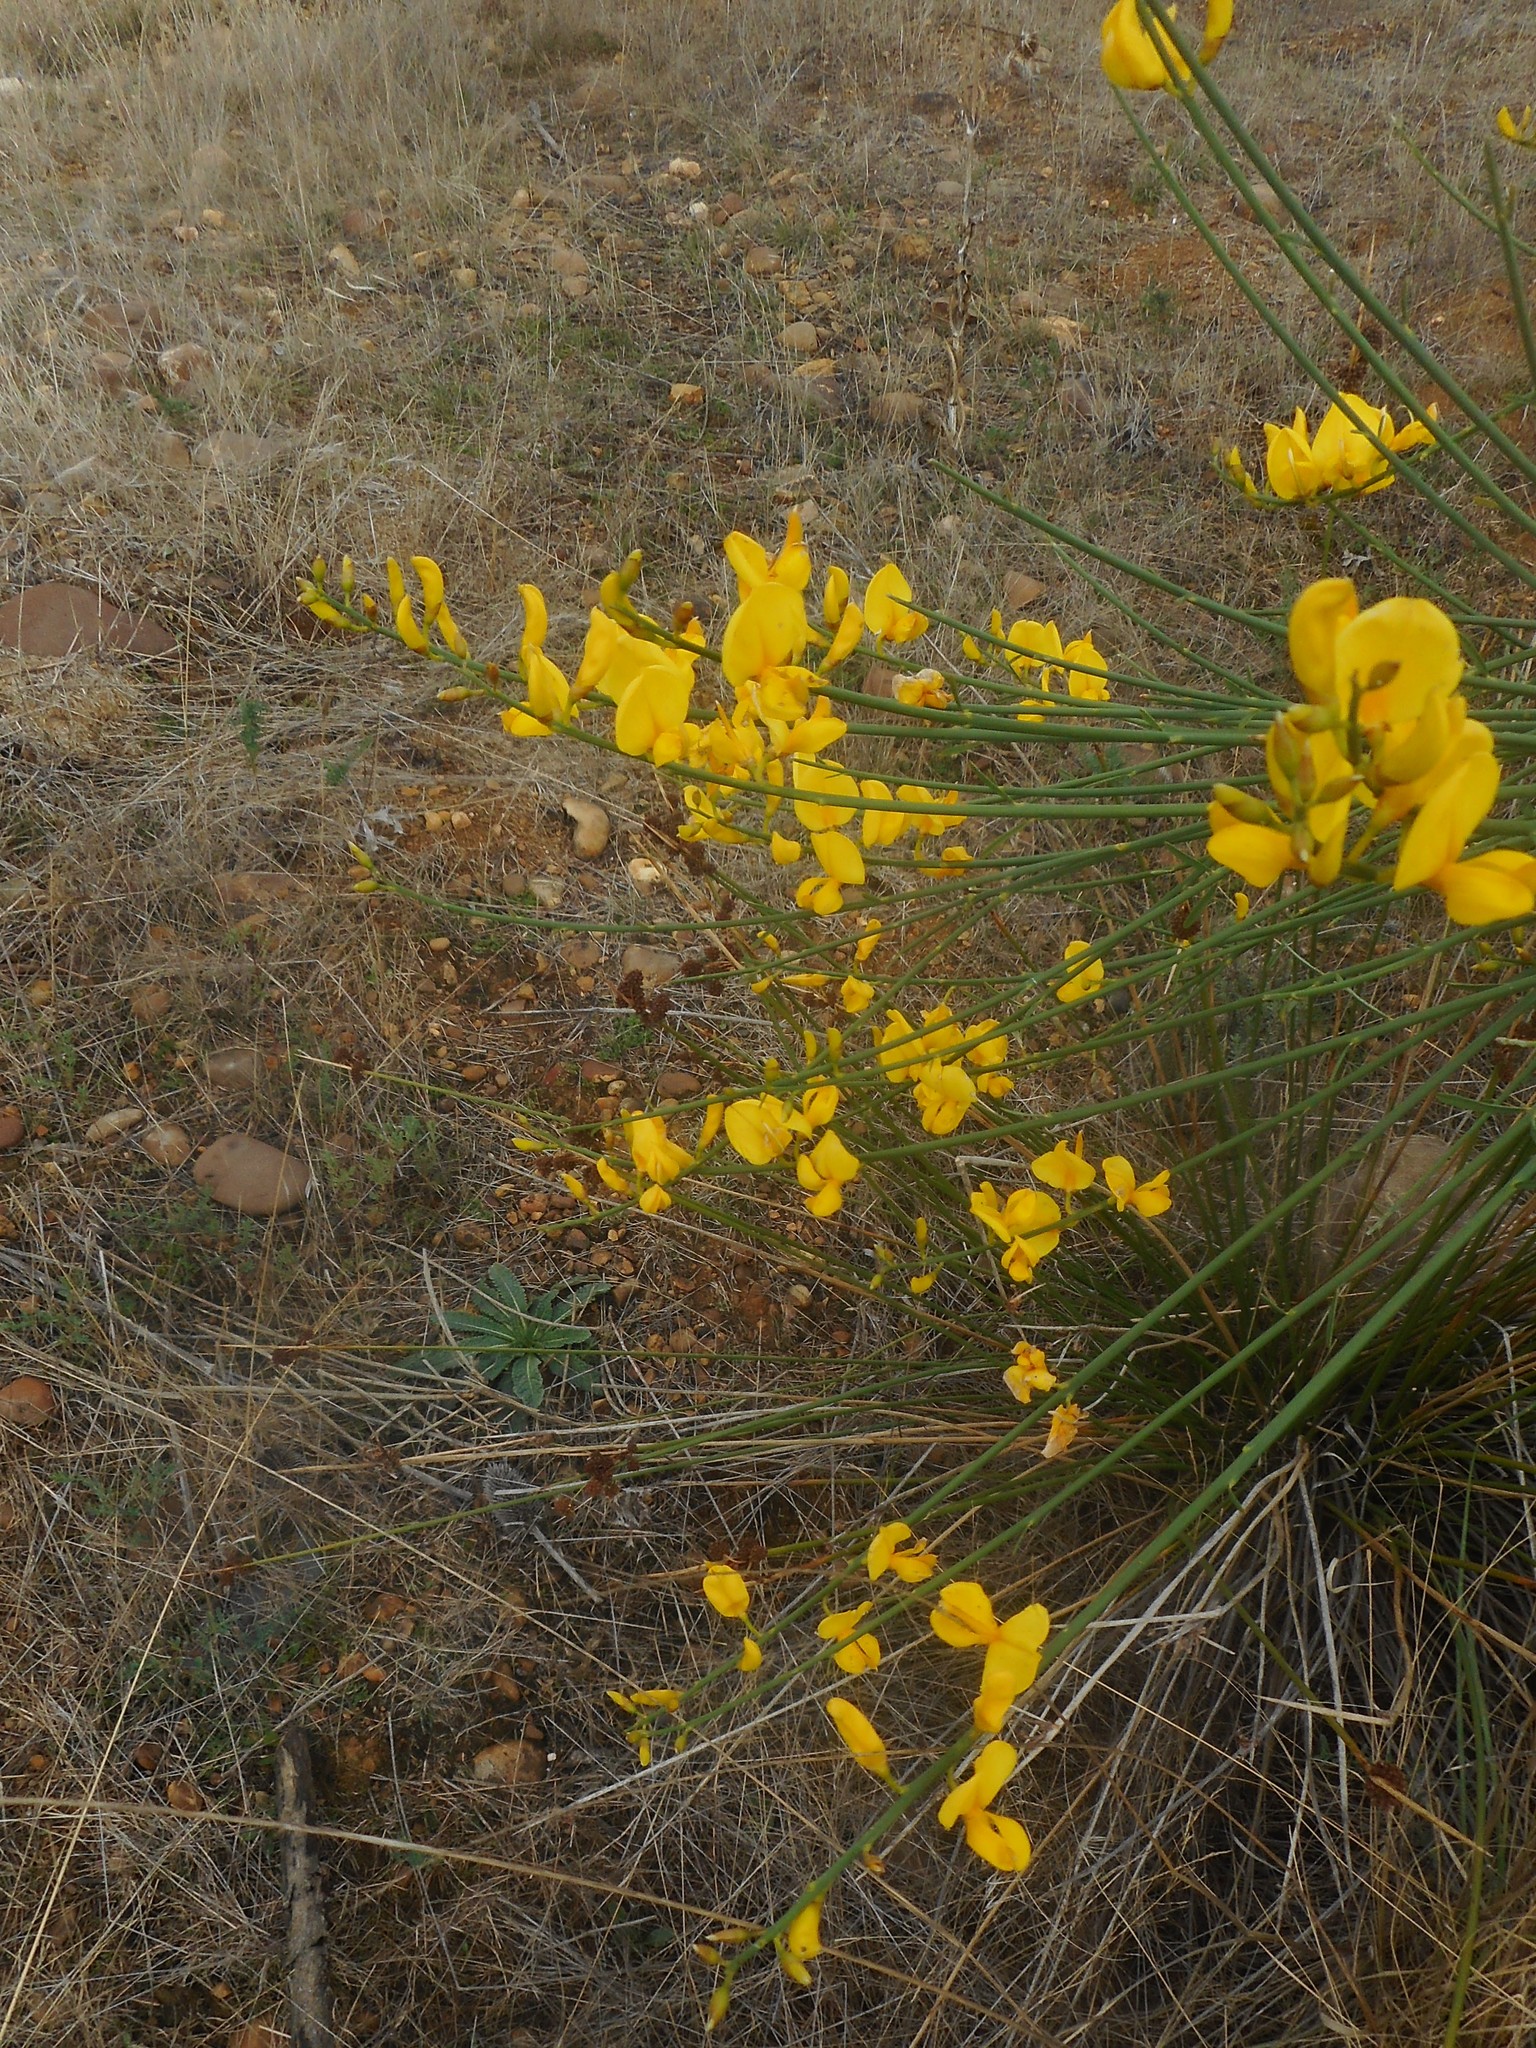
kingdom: Plantae
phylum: Tracheophyta
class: Magnoliopsida
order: Fabales
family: Fabaceae
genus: Spartium
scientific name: Spartium junceum
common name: Spanish broom
